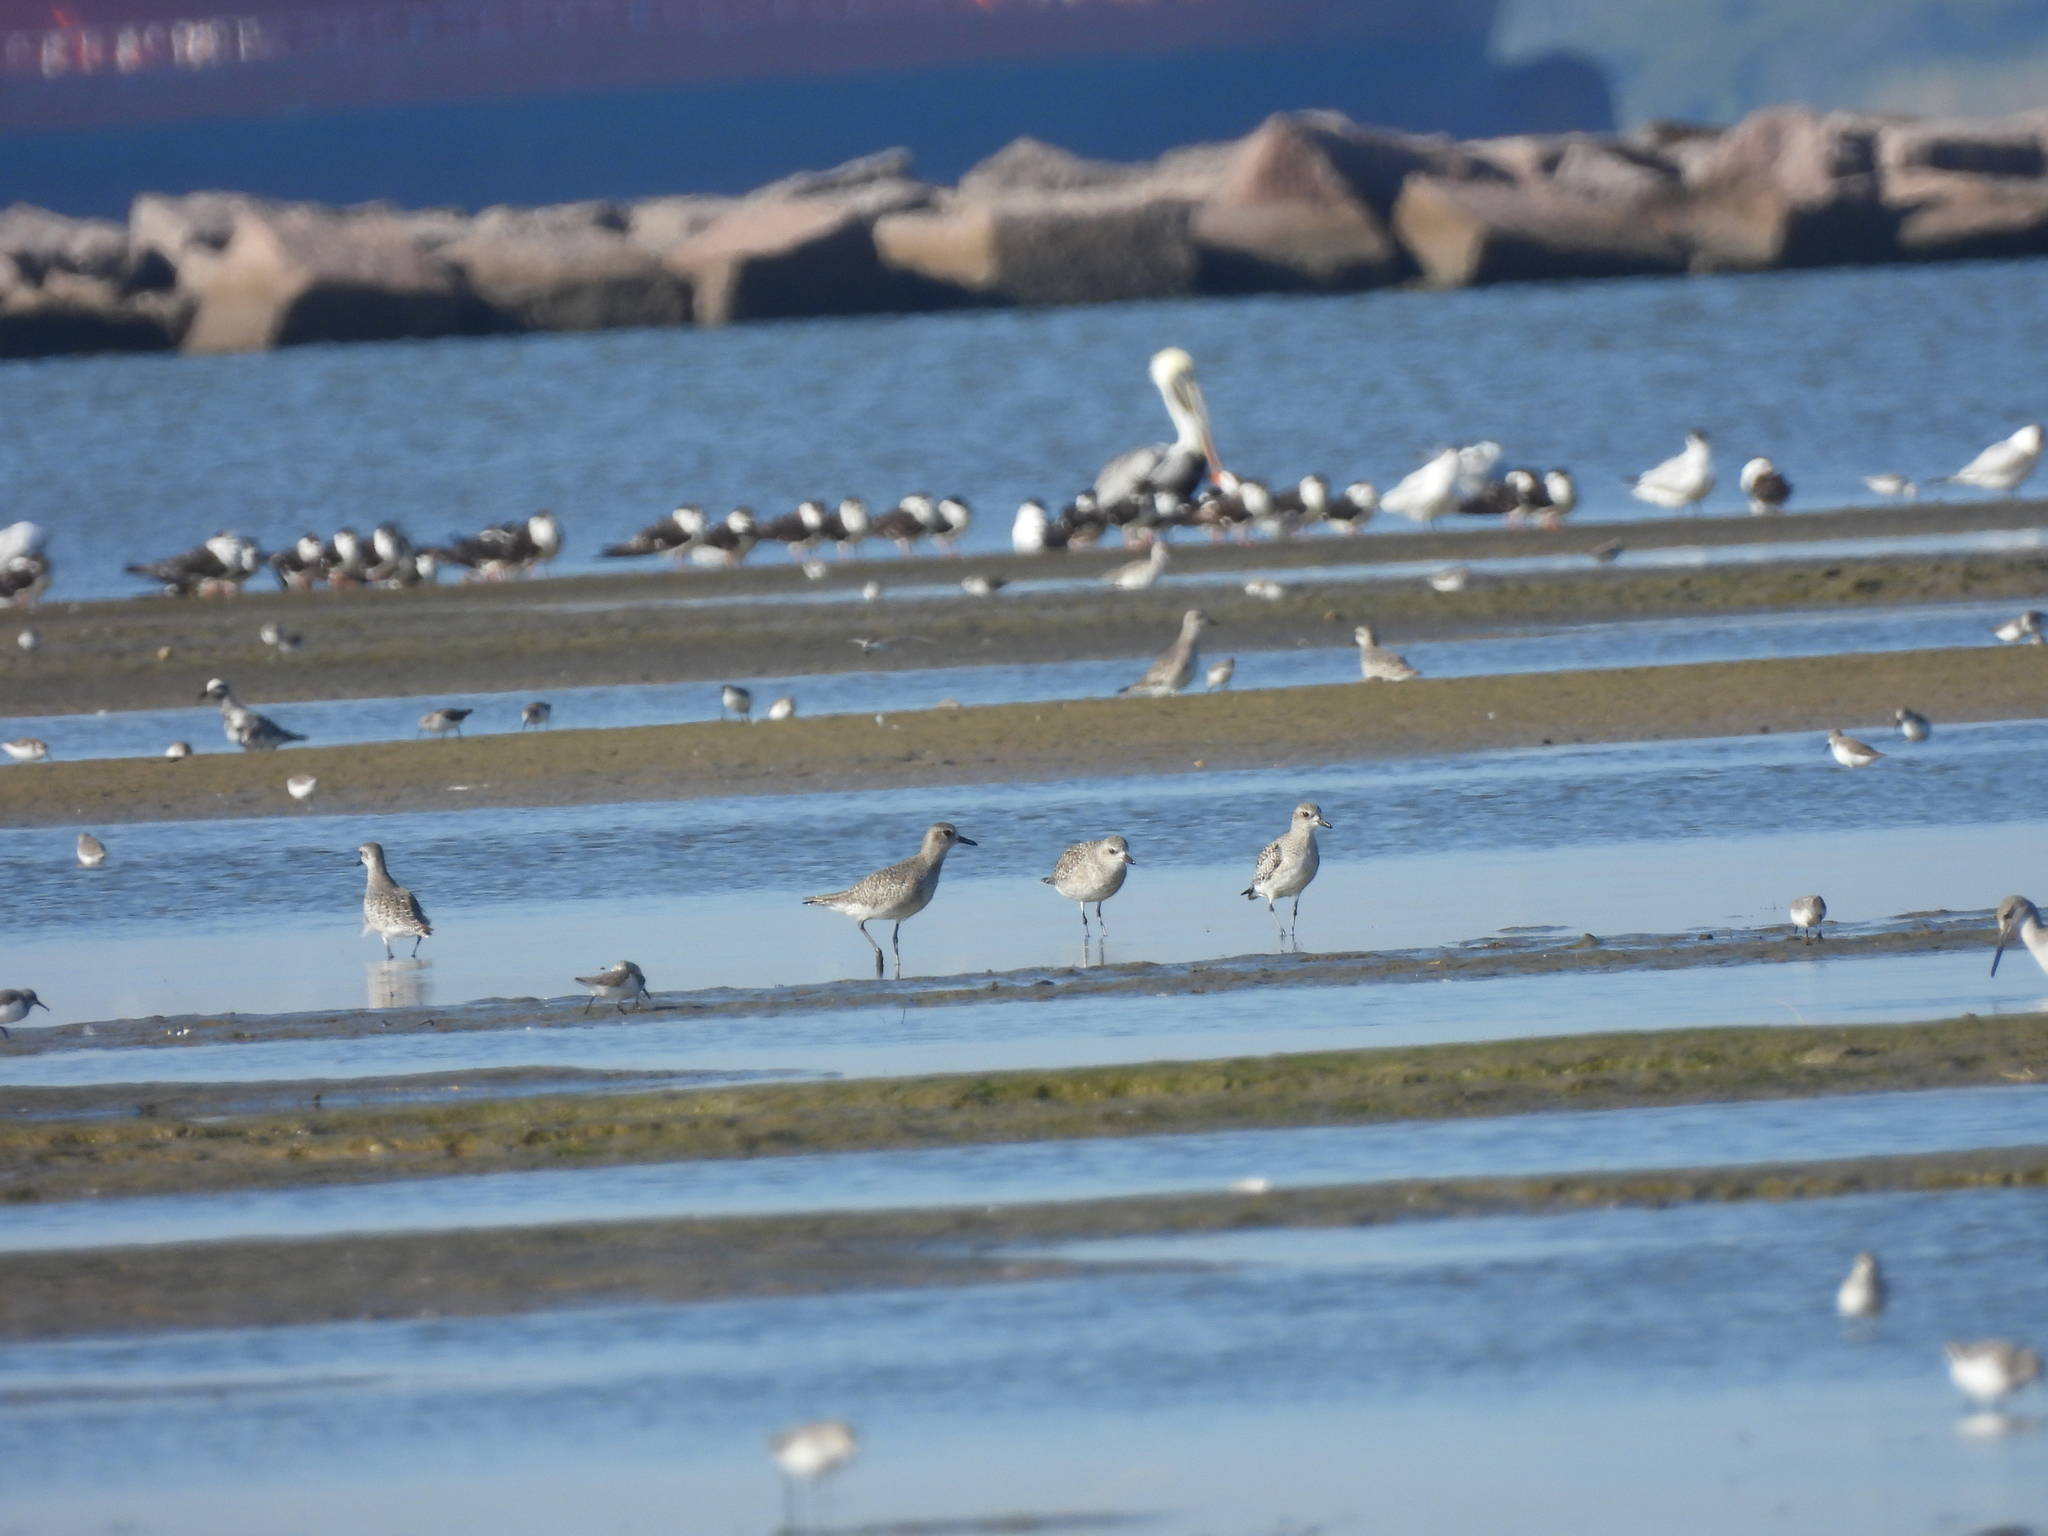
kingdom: Animalia
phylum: Chordata
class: Aves
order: Charadriiformes
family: Charadriidae
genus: Pluvialis
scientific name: Pluvialis squatarola
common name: Grey plover
